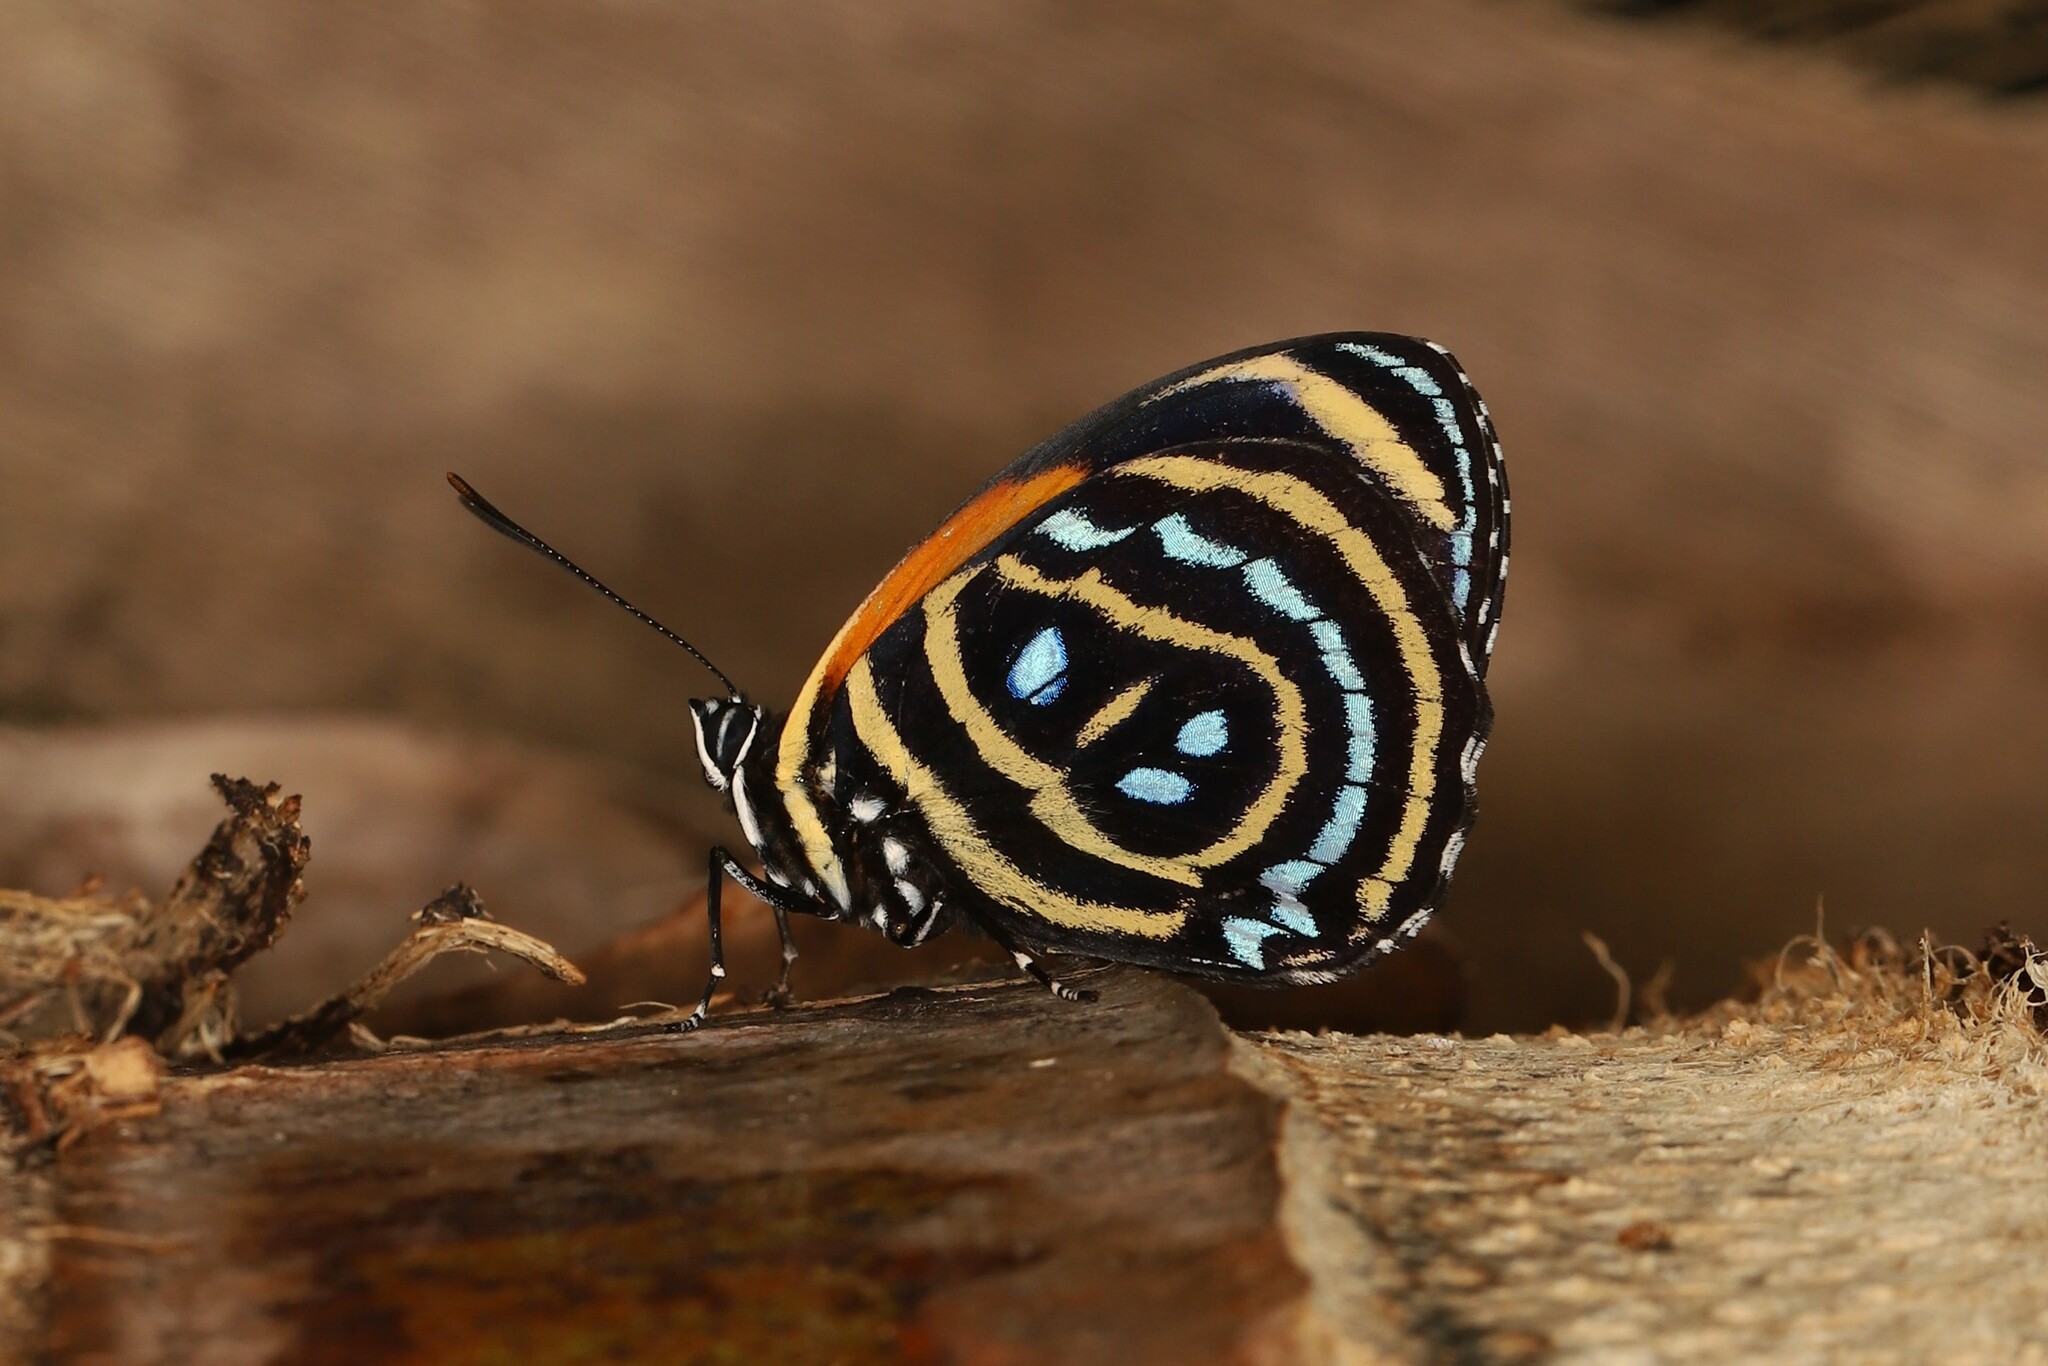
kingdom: Animalia
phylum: Arthropoda
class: Insecta
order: Lepidoptera
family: Nymphalidae
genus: Catagramma
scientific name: Catagramma Callicore excelsior
